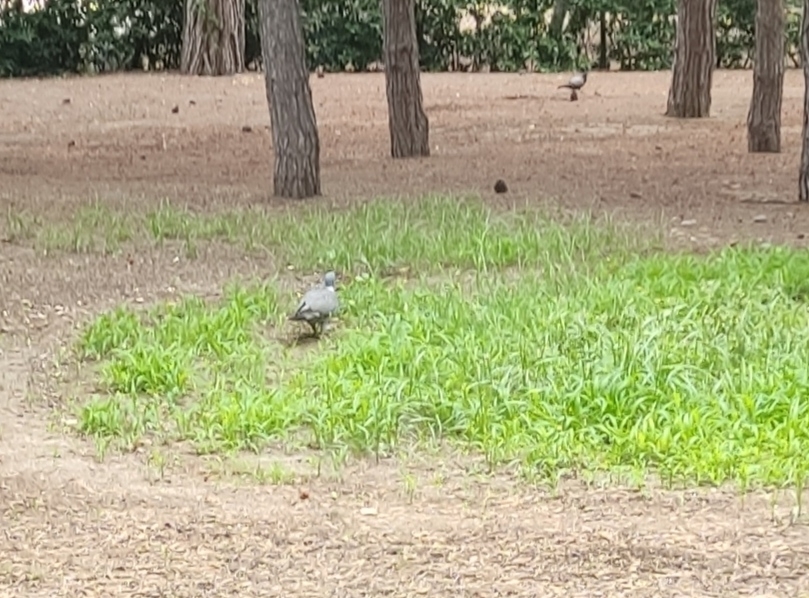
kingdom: Animalia
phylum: Chordata
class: Aves
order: Columbiformes
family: Columbidae
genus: Columba
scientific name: Columba palumbus
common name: Common wood pigeon
